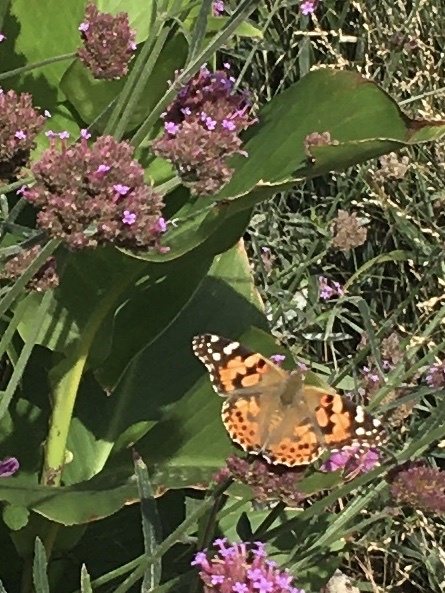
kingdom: Animalia
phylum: Arthropoda
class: Insecta
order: Lepidoptera
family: Nymphalidae
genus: Vanessa
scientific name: Vanessa cardui
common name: Painted lady
